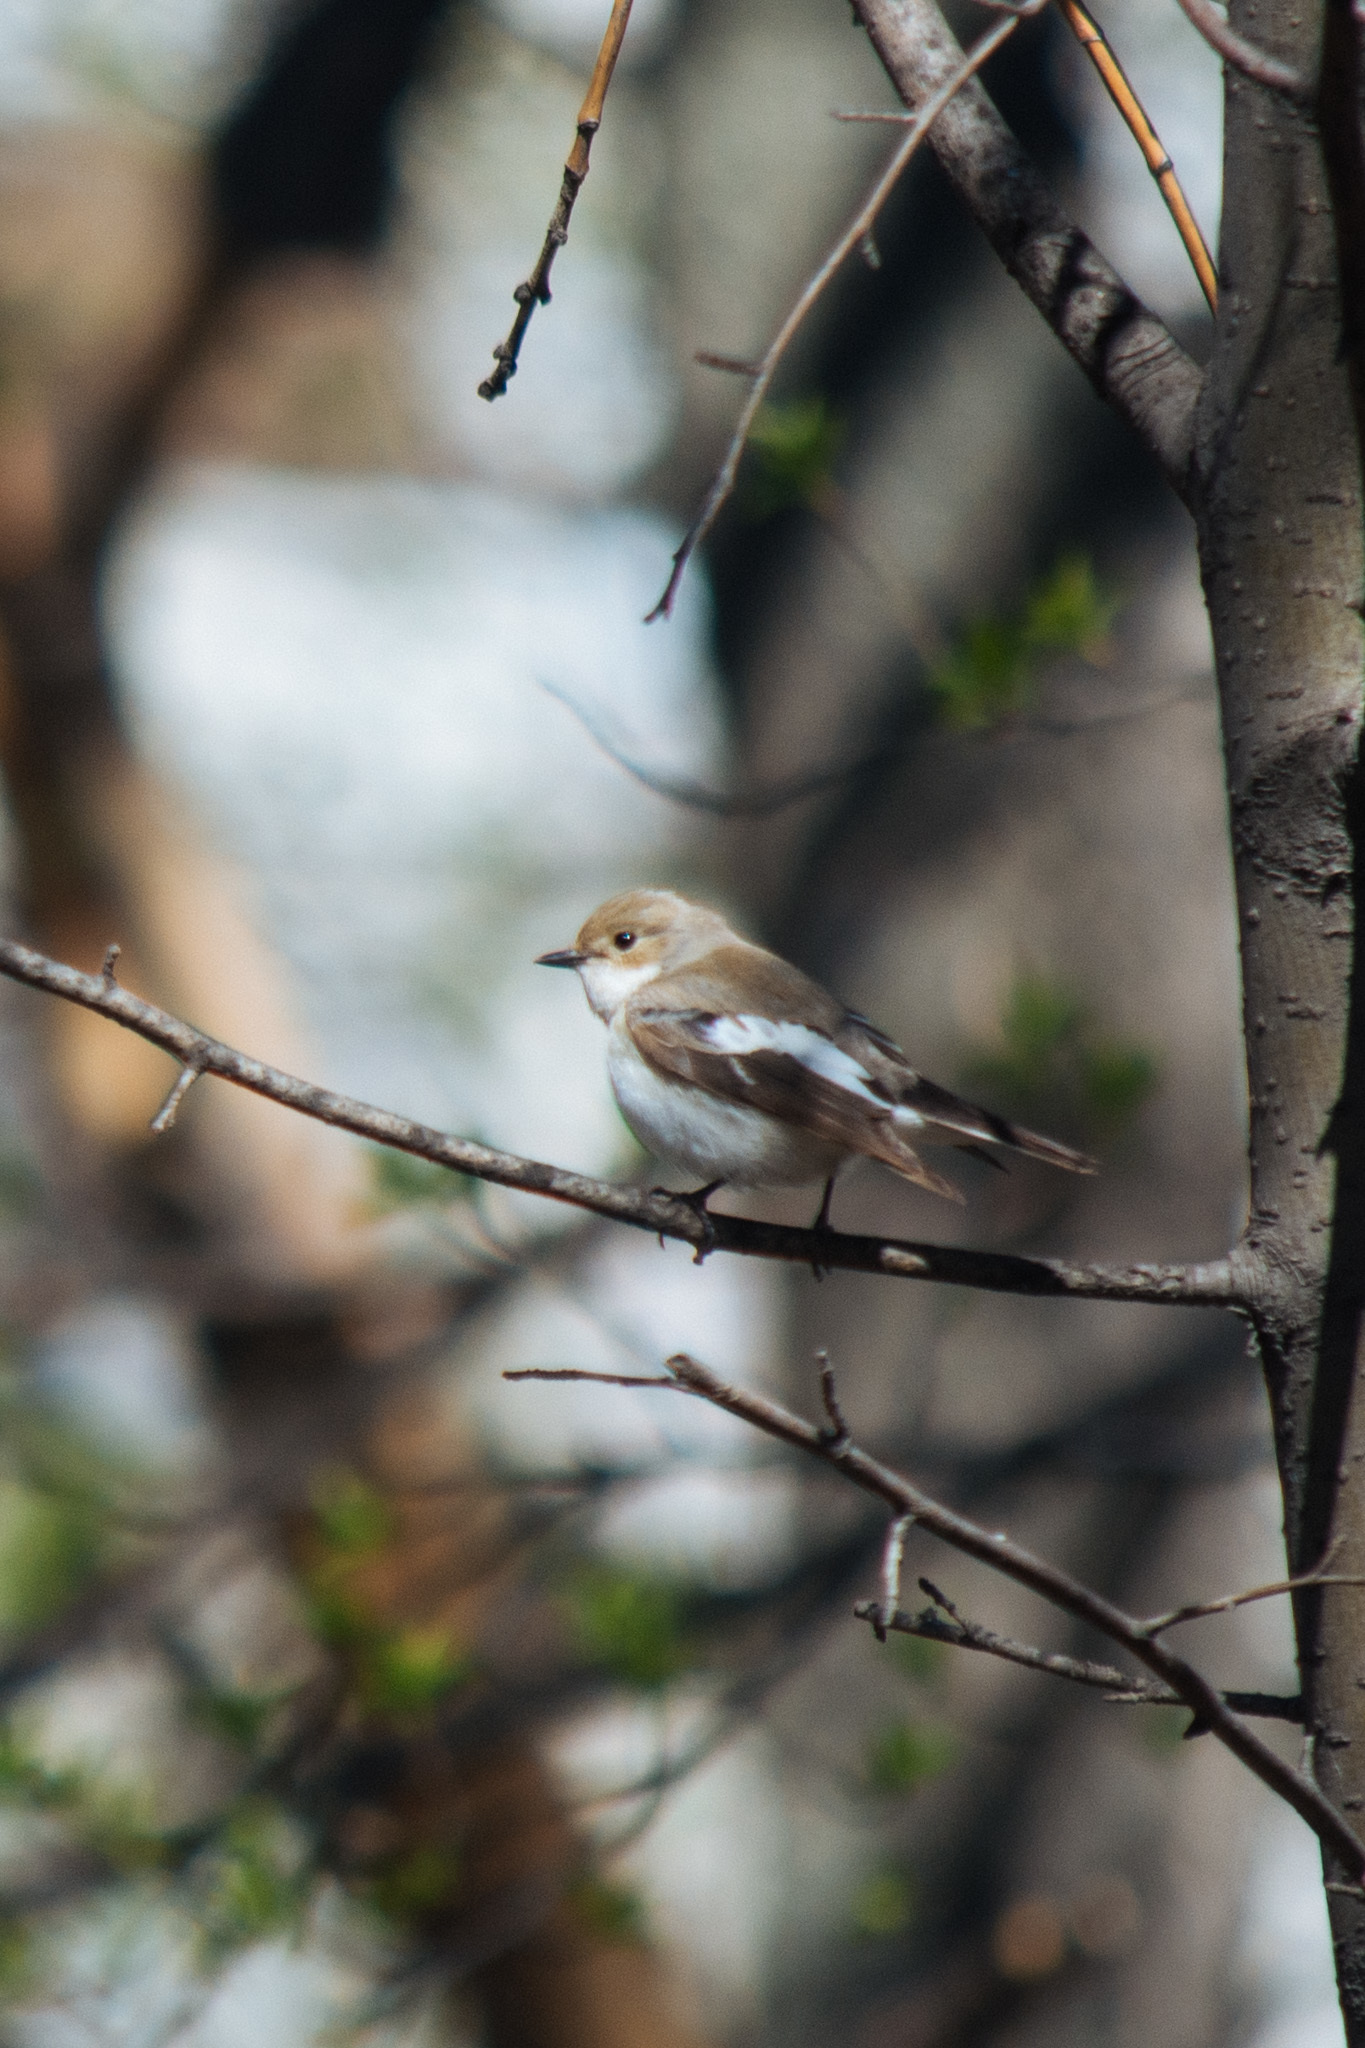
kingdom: Animalia
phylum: Chordata
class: Aves
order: Passeriformes
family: Muscicapidae
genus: Ficedula
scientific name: Ficedula hypoleuca
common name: European pied flycatcher
